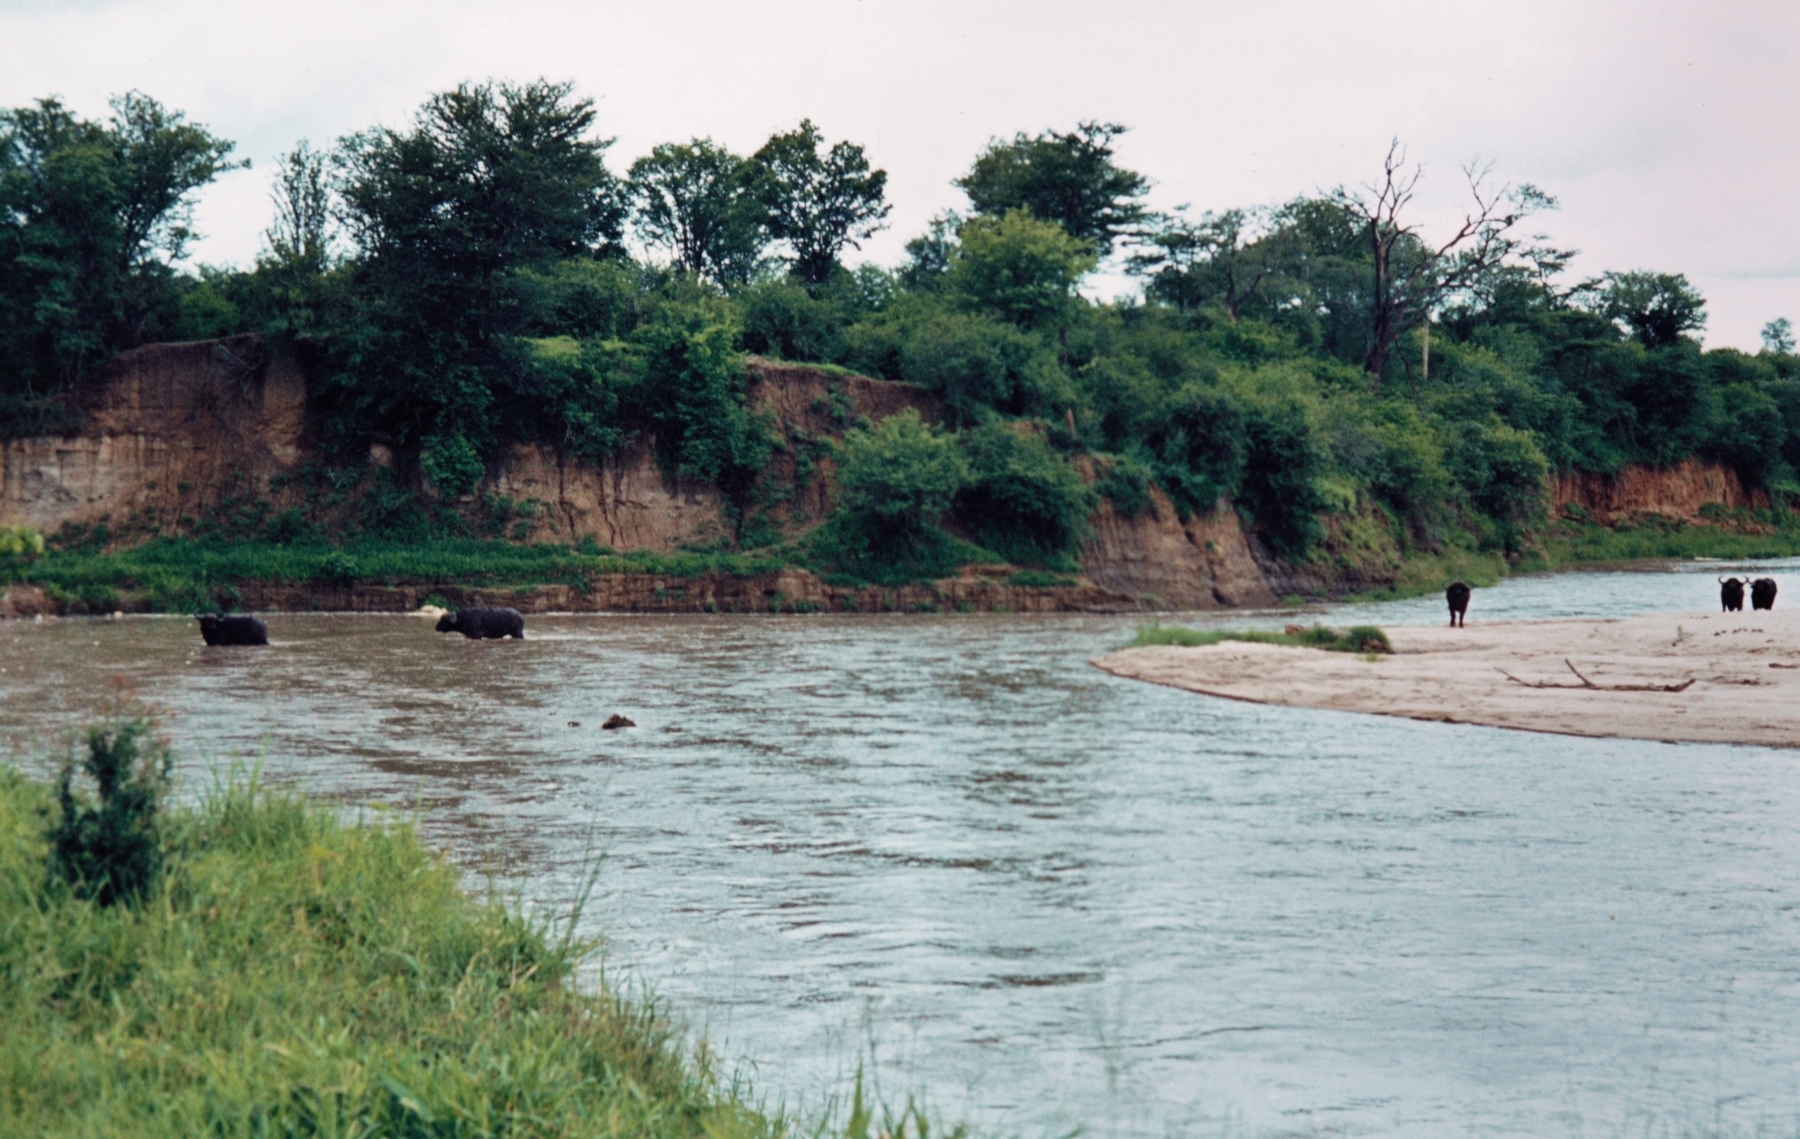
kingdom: Animalia
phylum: Chordata
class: Mammalia
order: Artiodactyla
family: Bovidae
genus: Syncerus
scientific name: Syncerus caffer
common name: African buffalo
